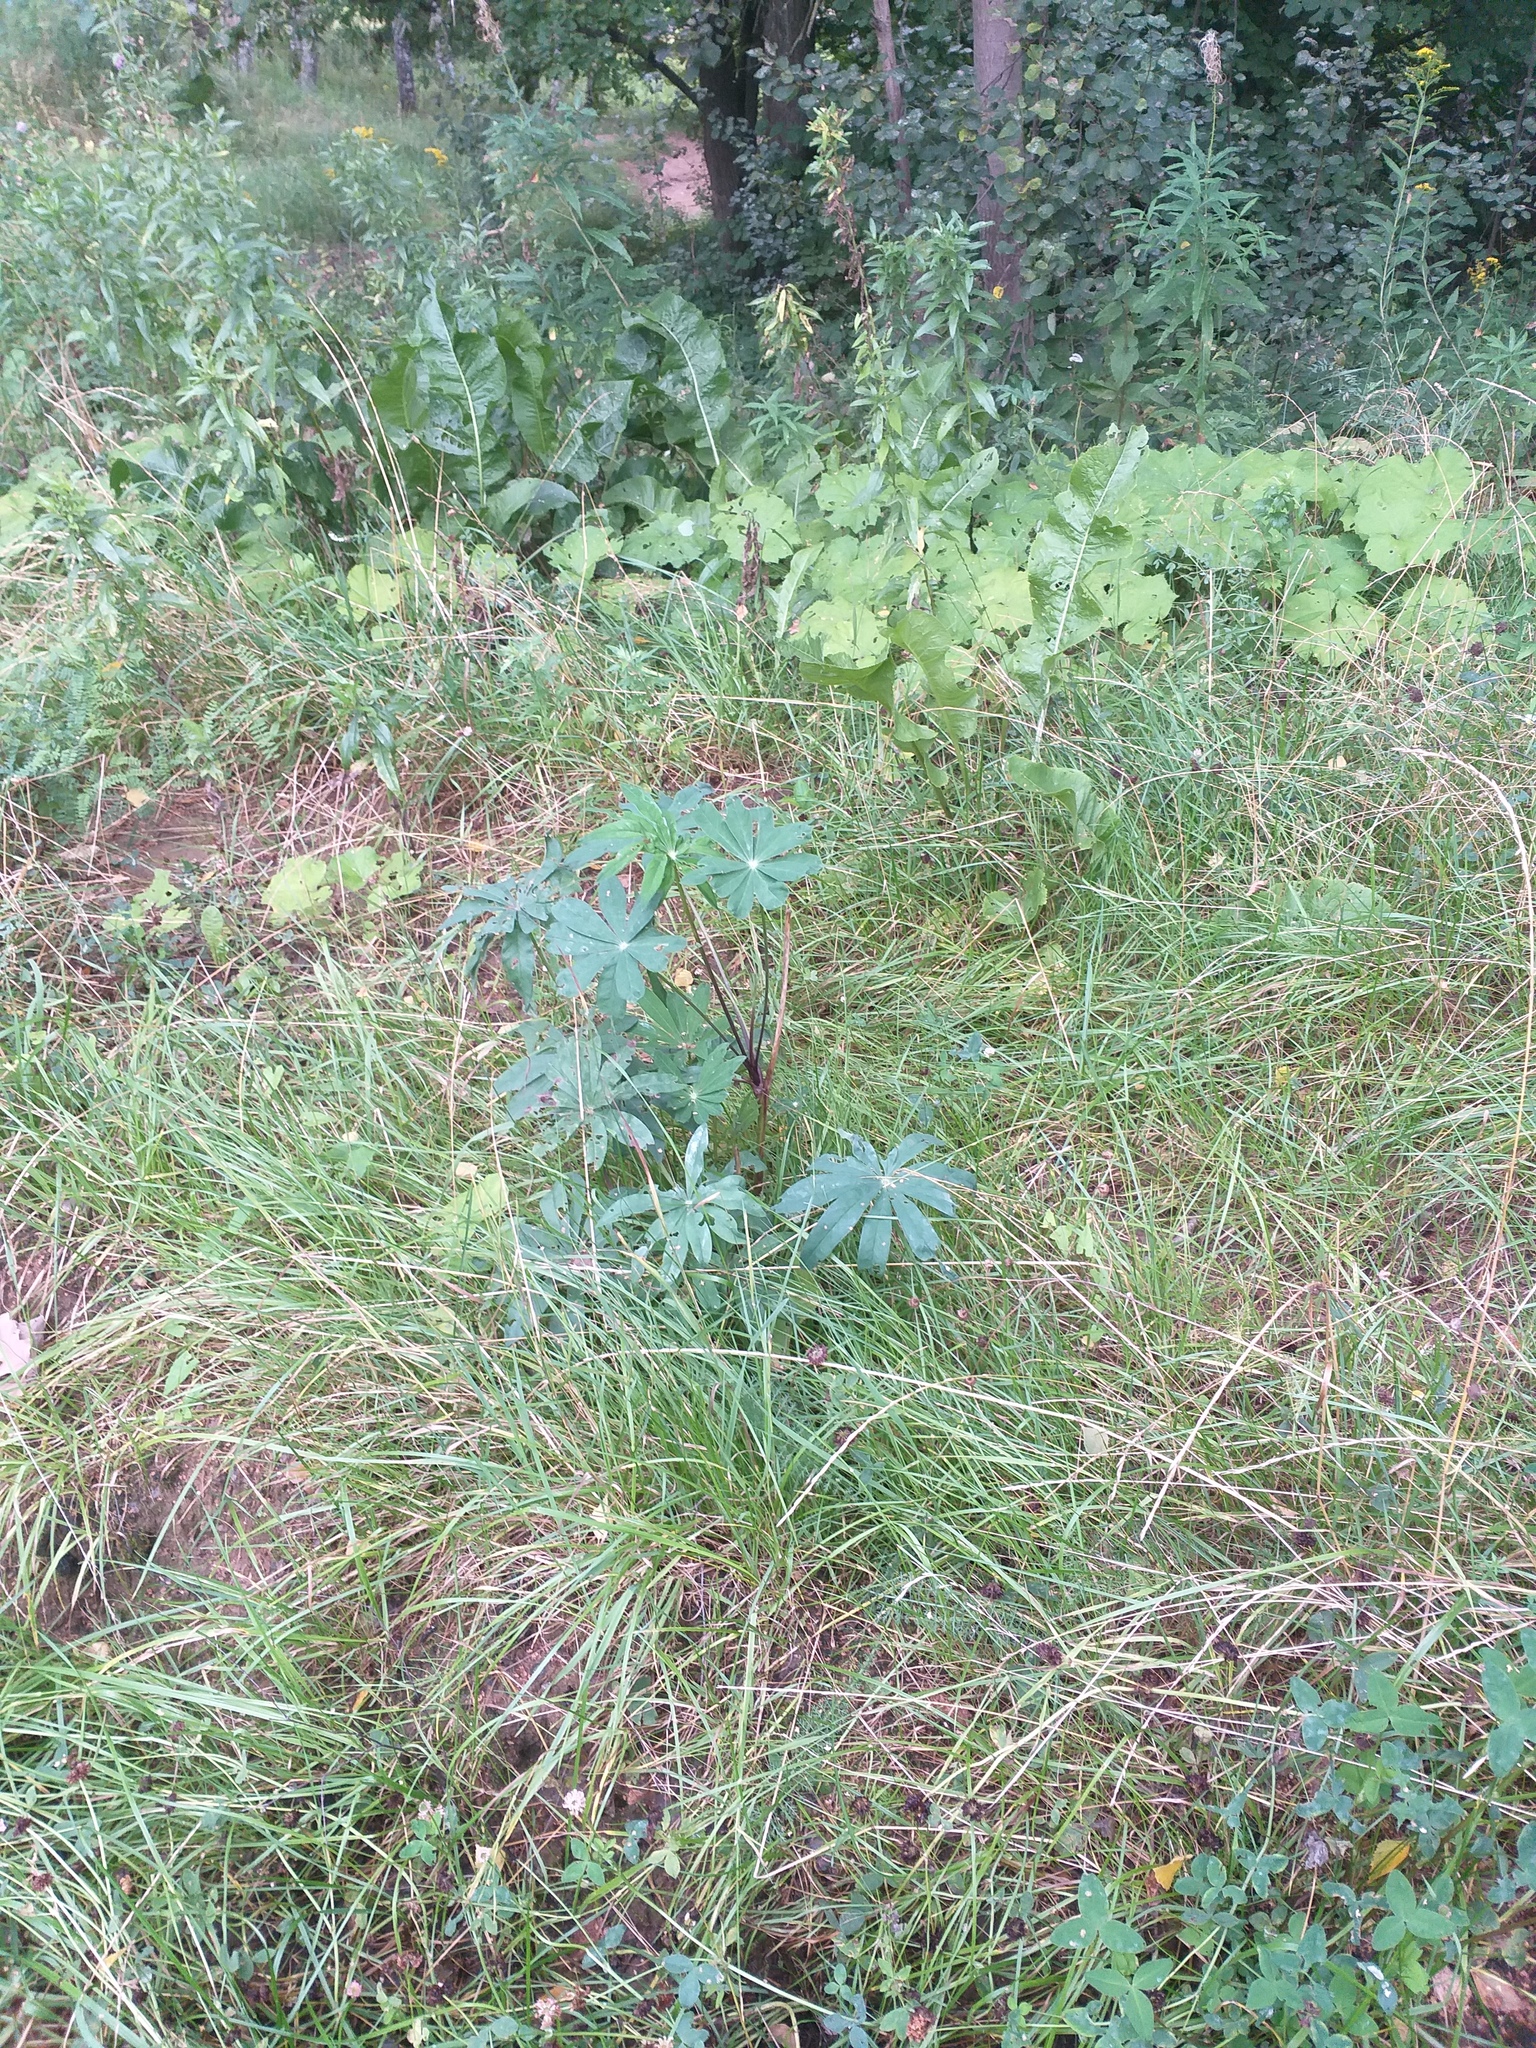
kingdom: Plantae
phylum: Tracheophyta
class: Magnoliopsida
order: Fabales
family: Fabaceae
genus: Lupinus
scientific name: Lupinus polyphyllus
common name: Garden lupin
